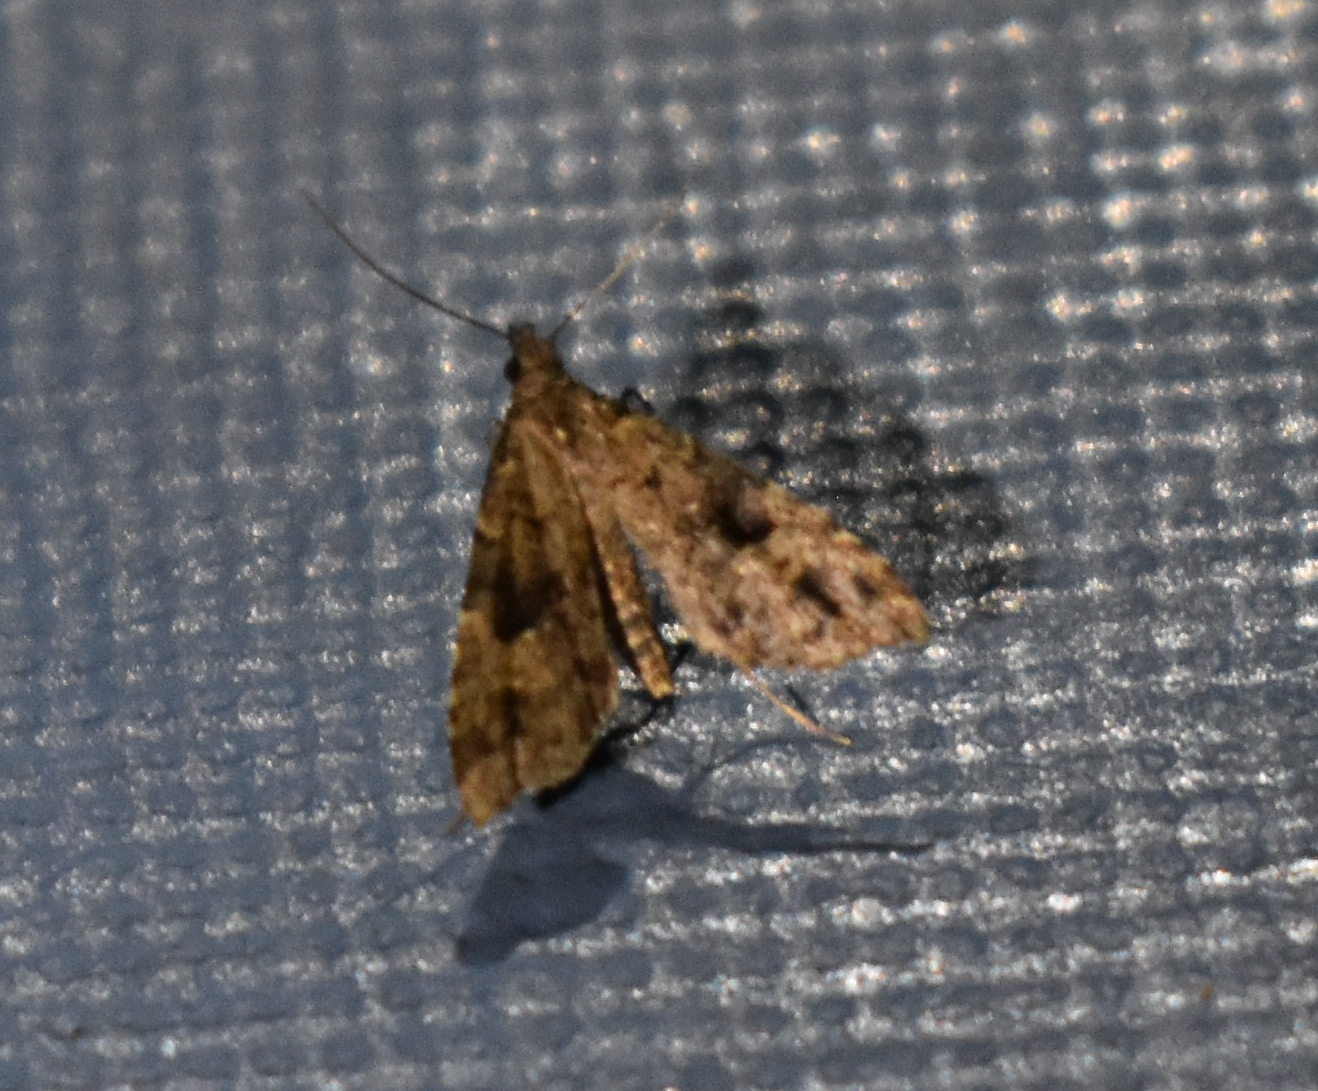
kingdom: Animalia
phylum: Arthropoda
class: Insecta
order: Lepidoptera
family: Erebidae
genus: Pseudoschrankia
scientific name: Pseudoschrankia brevipalpis
